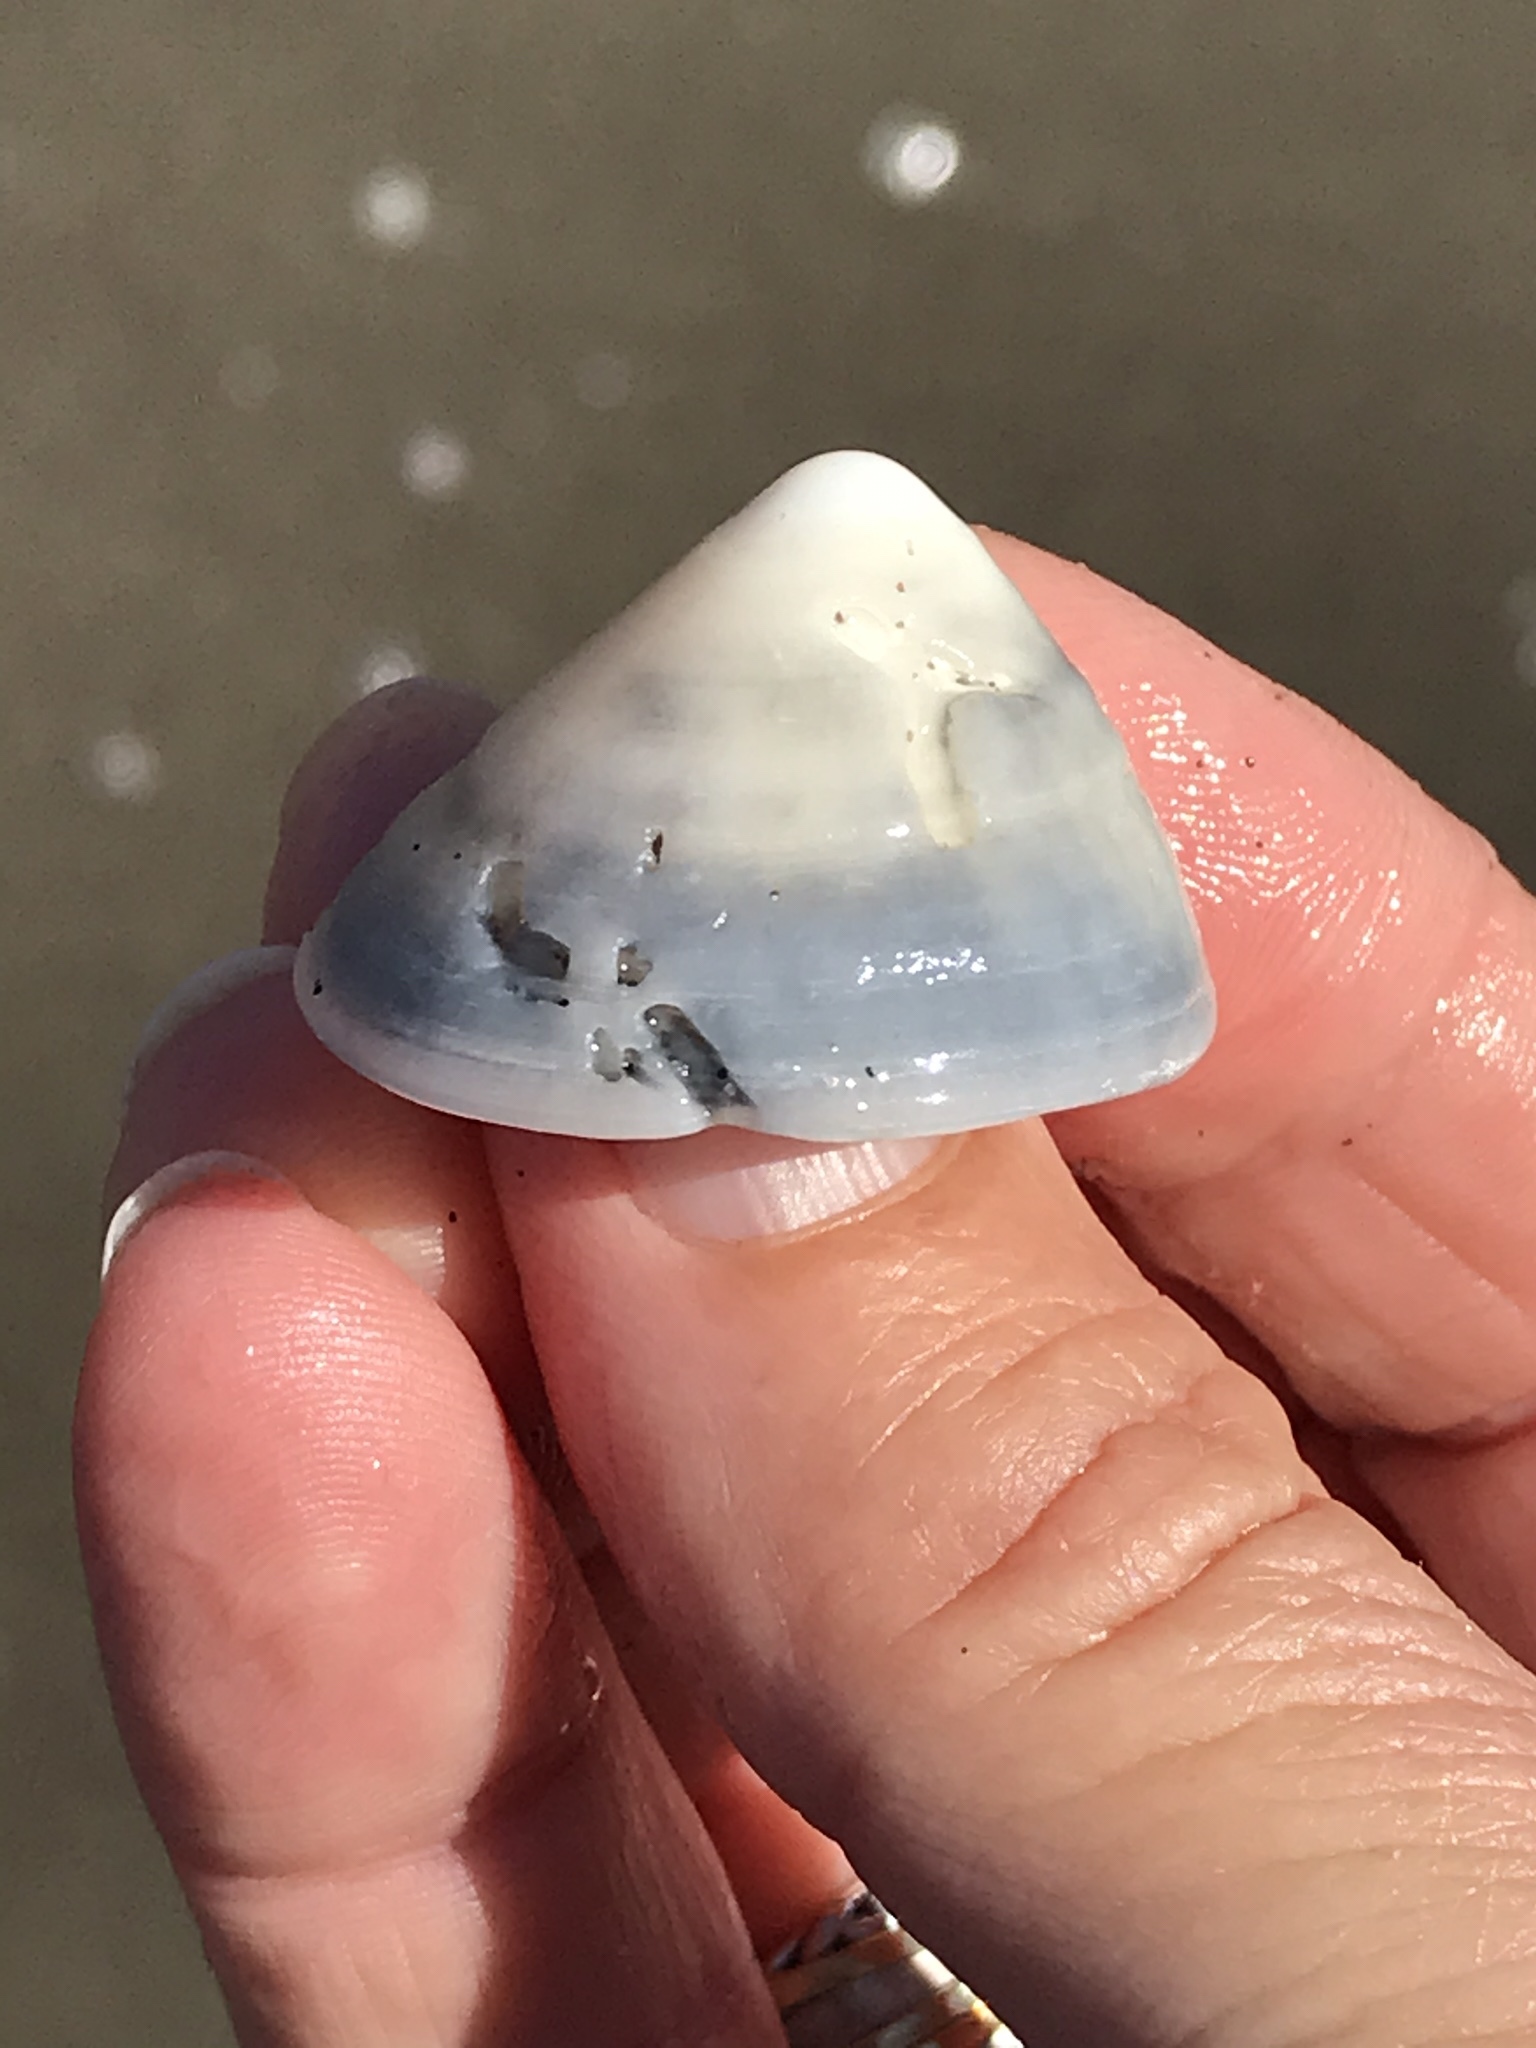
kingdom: Animalia
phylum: Mollusca
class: Gastropoda
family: Acmaeidae
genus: Acmaea
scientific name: Acmaea mitra
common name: Pacific white cap limpet
